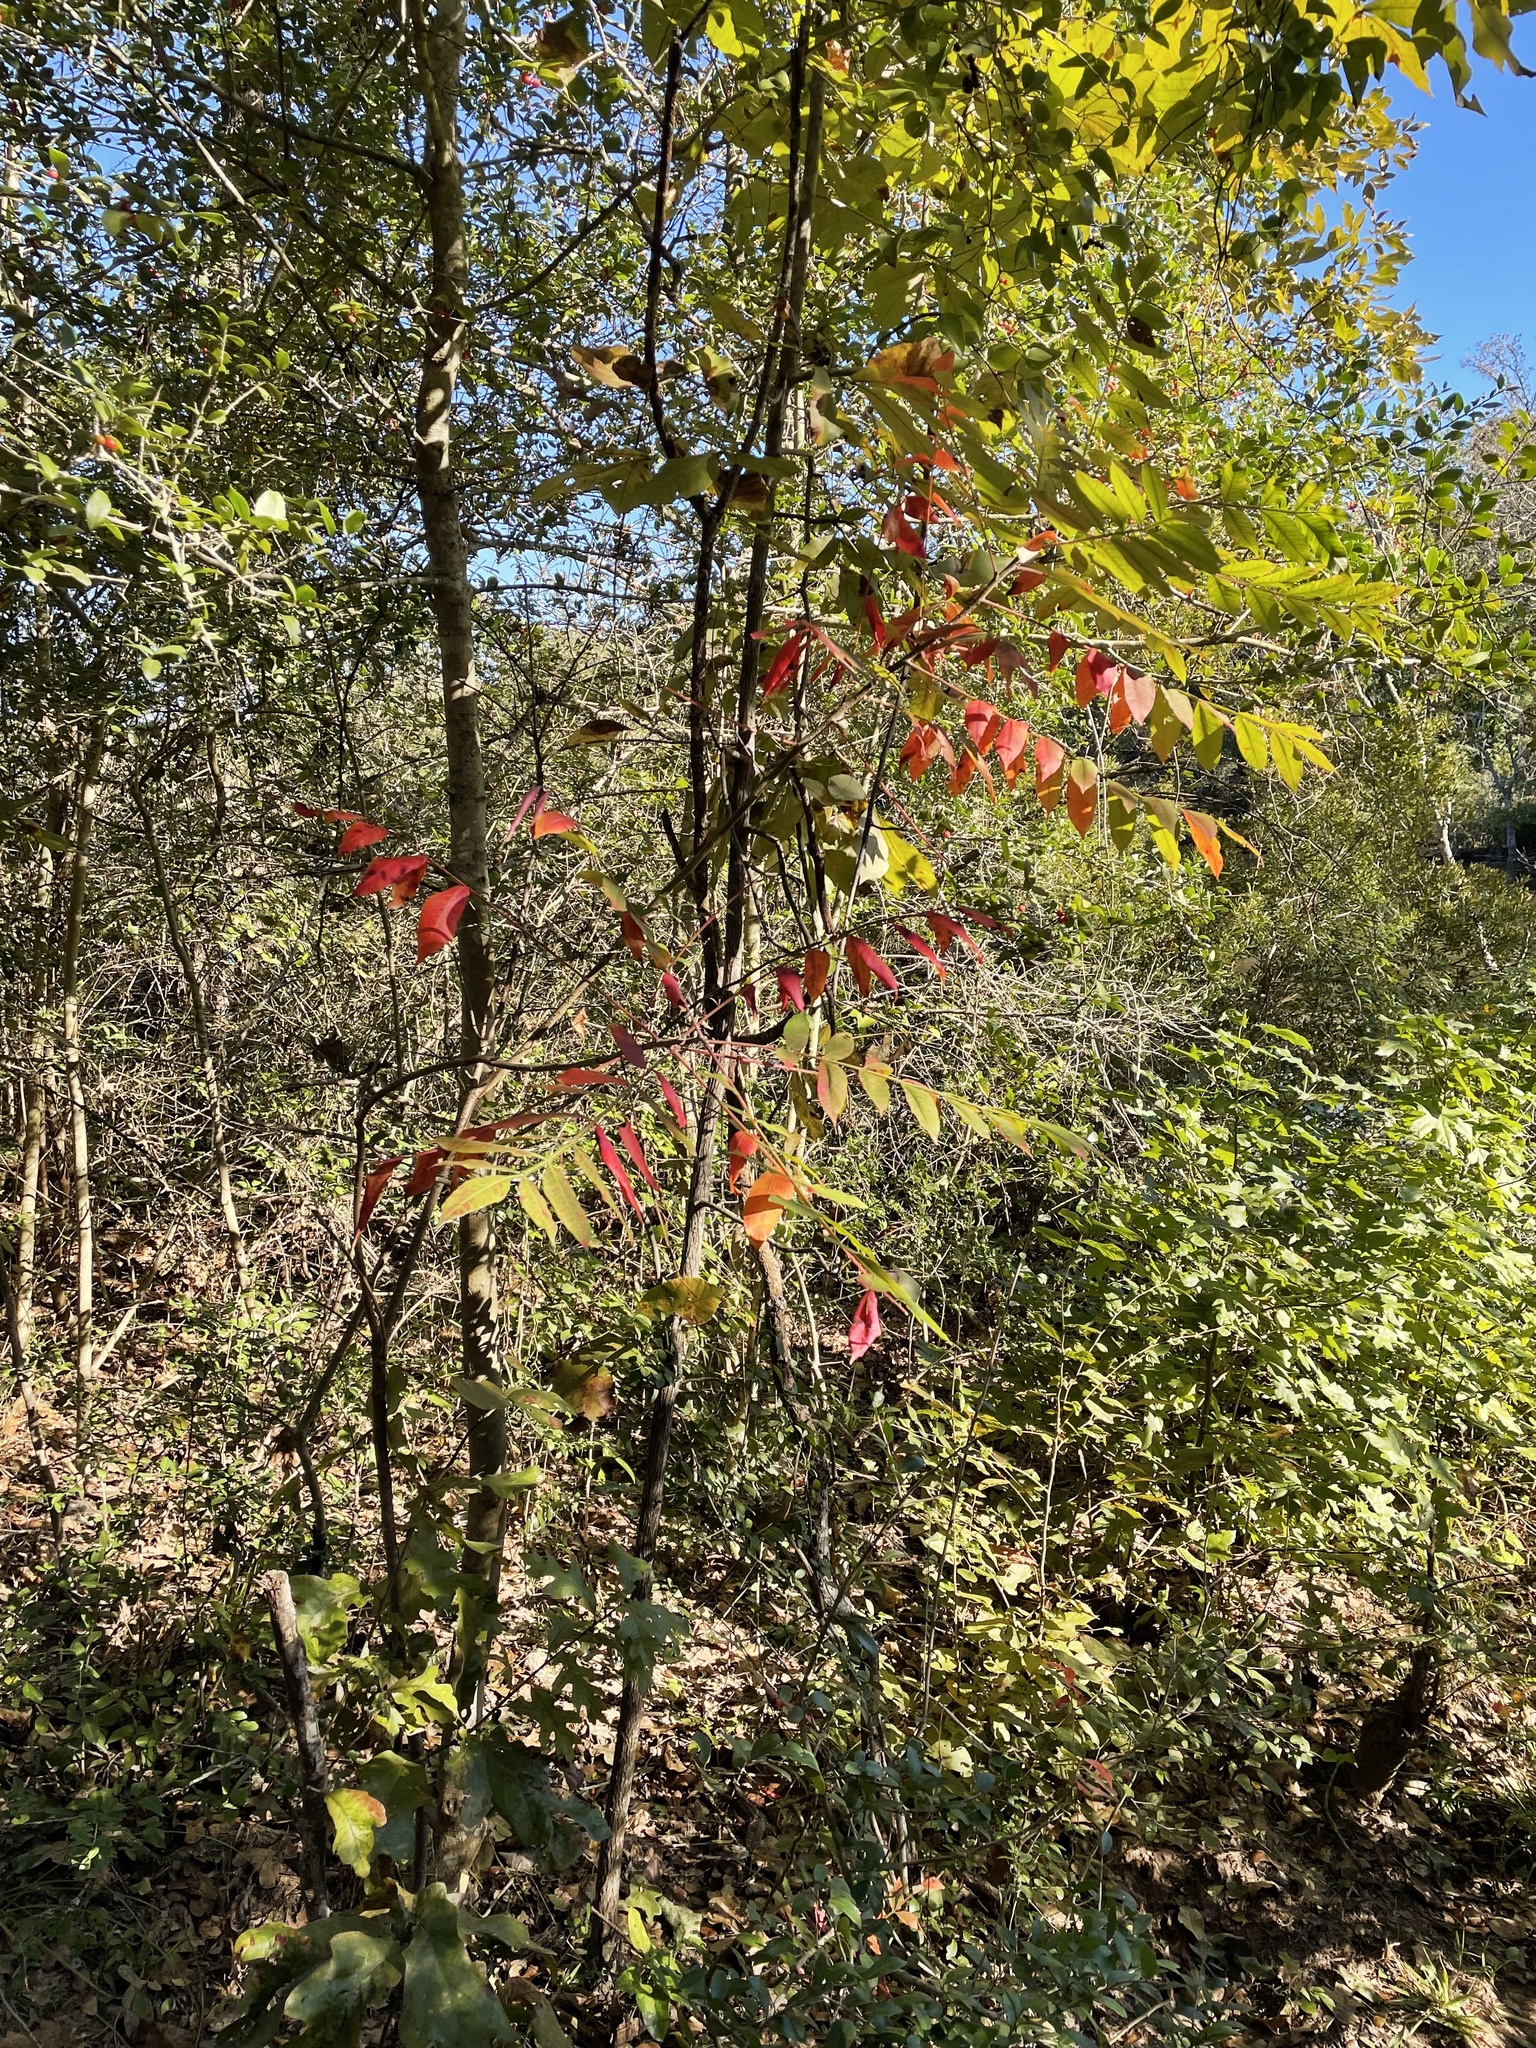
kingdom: Plantae
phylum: Tracheophyta
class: Magnoliopsida
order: Sapindales
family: Anacardiaceae
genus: Rhus
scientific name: Rhus copallina
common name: Shining sumac
